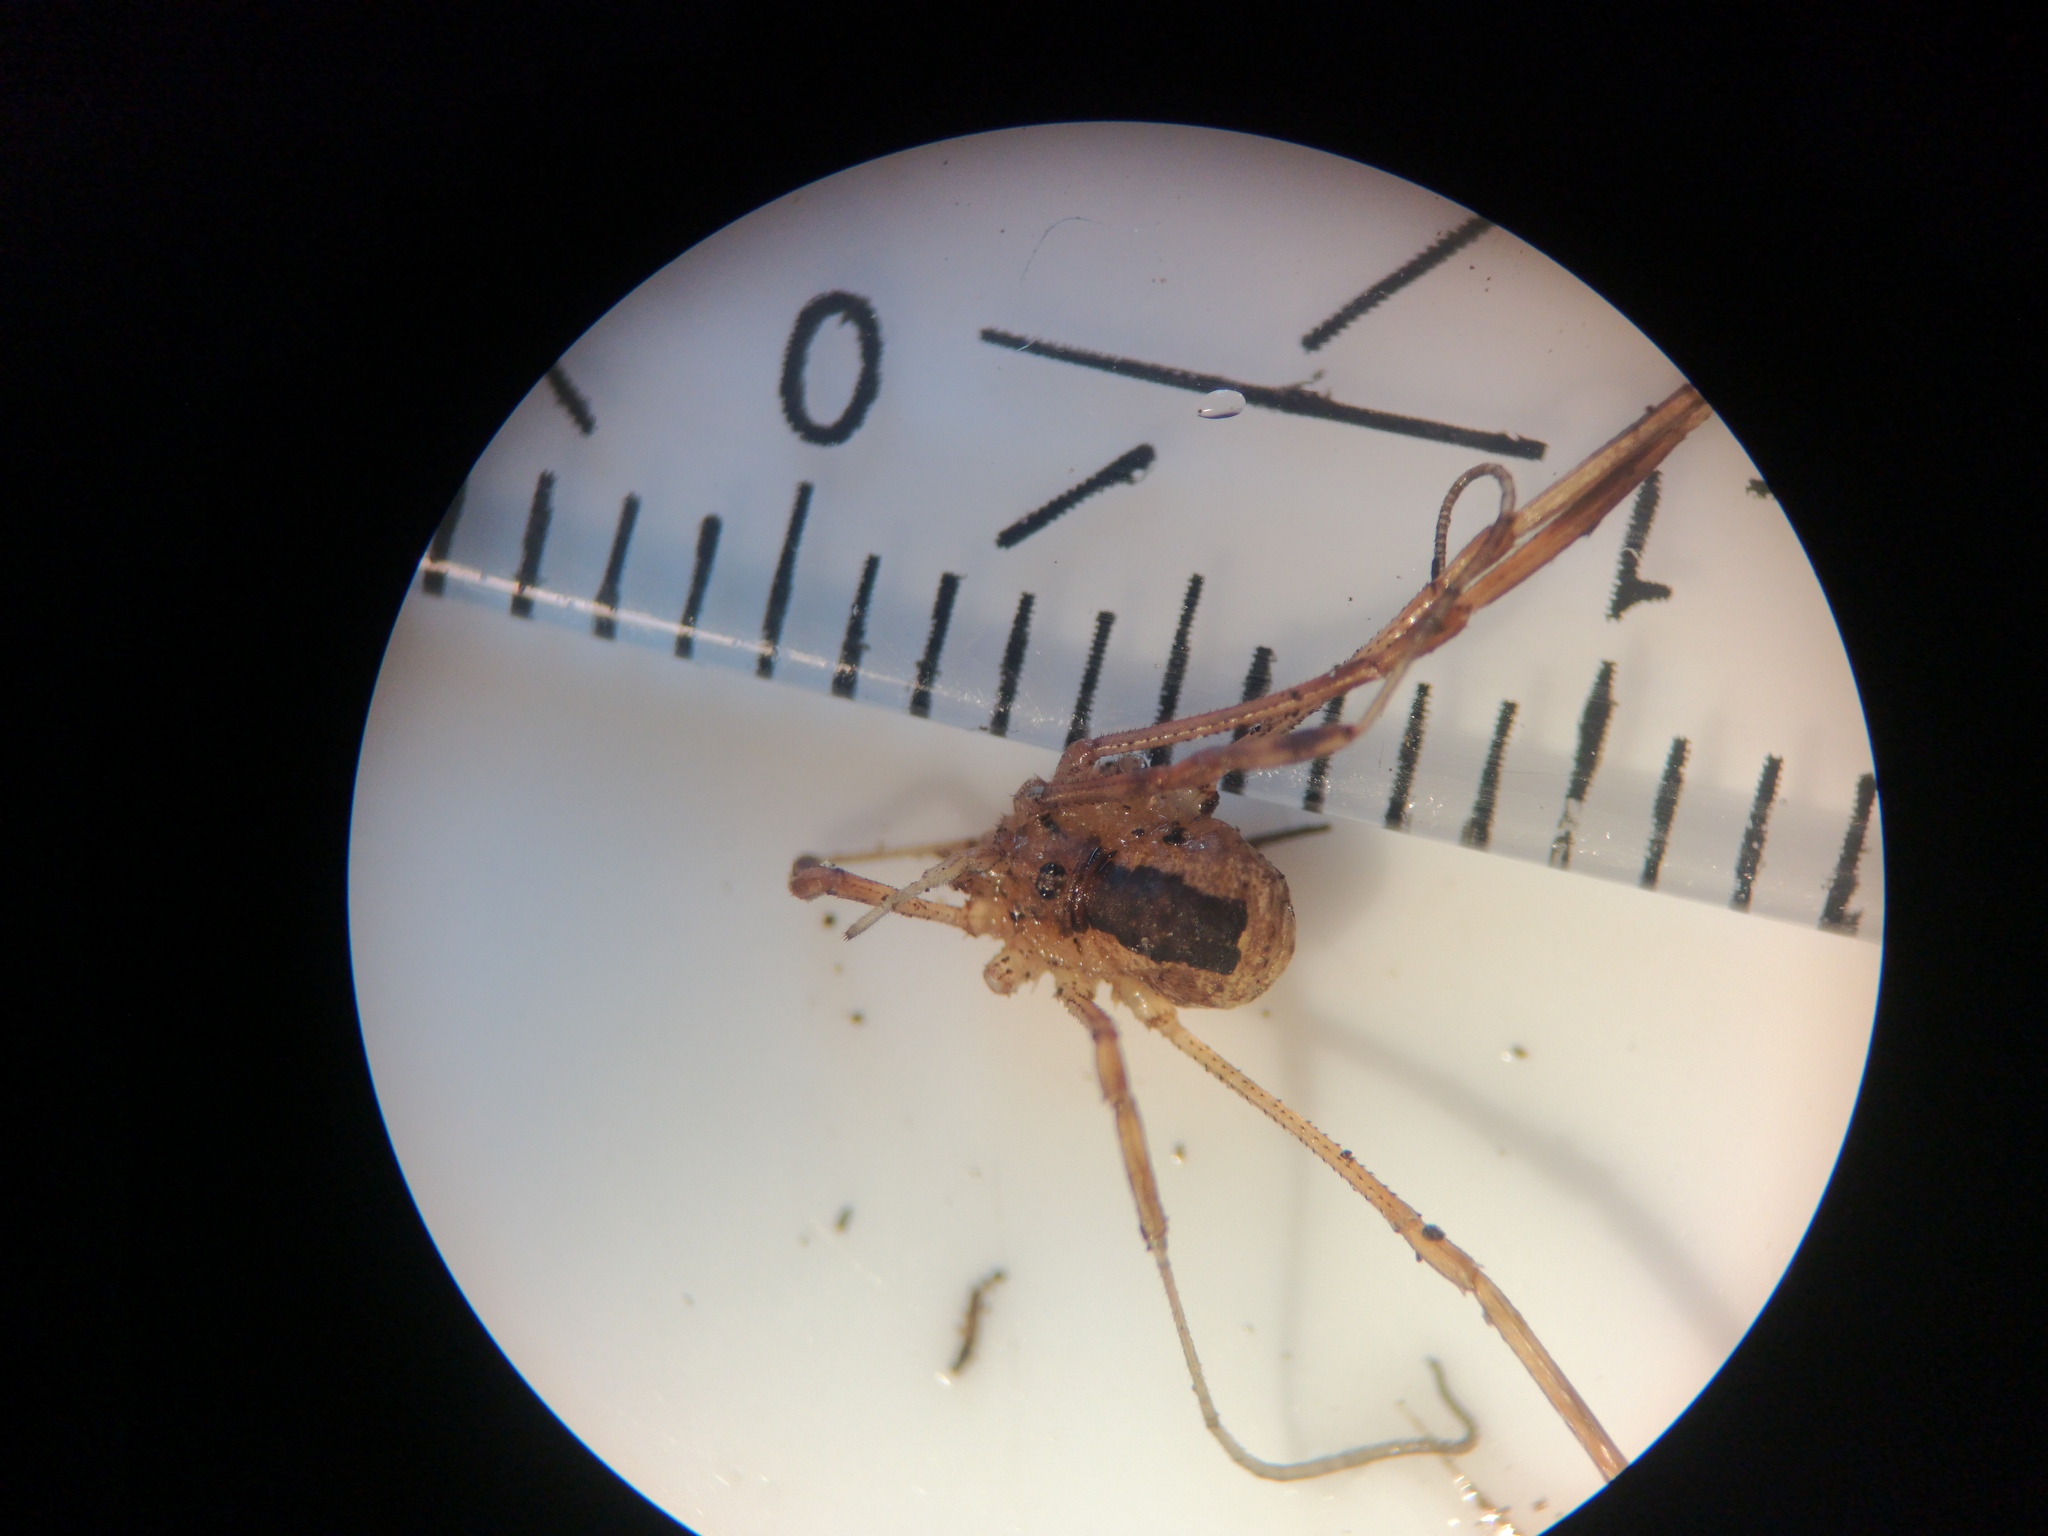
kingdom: Animalia
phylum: Arthropoda
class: Arachnida
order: Opiliones
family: Phalangiidae
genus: Lacinius
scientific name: Lacinius ephippiatus
